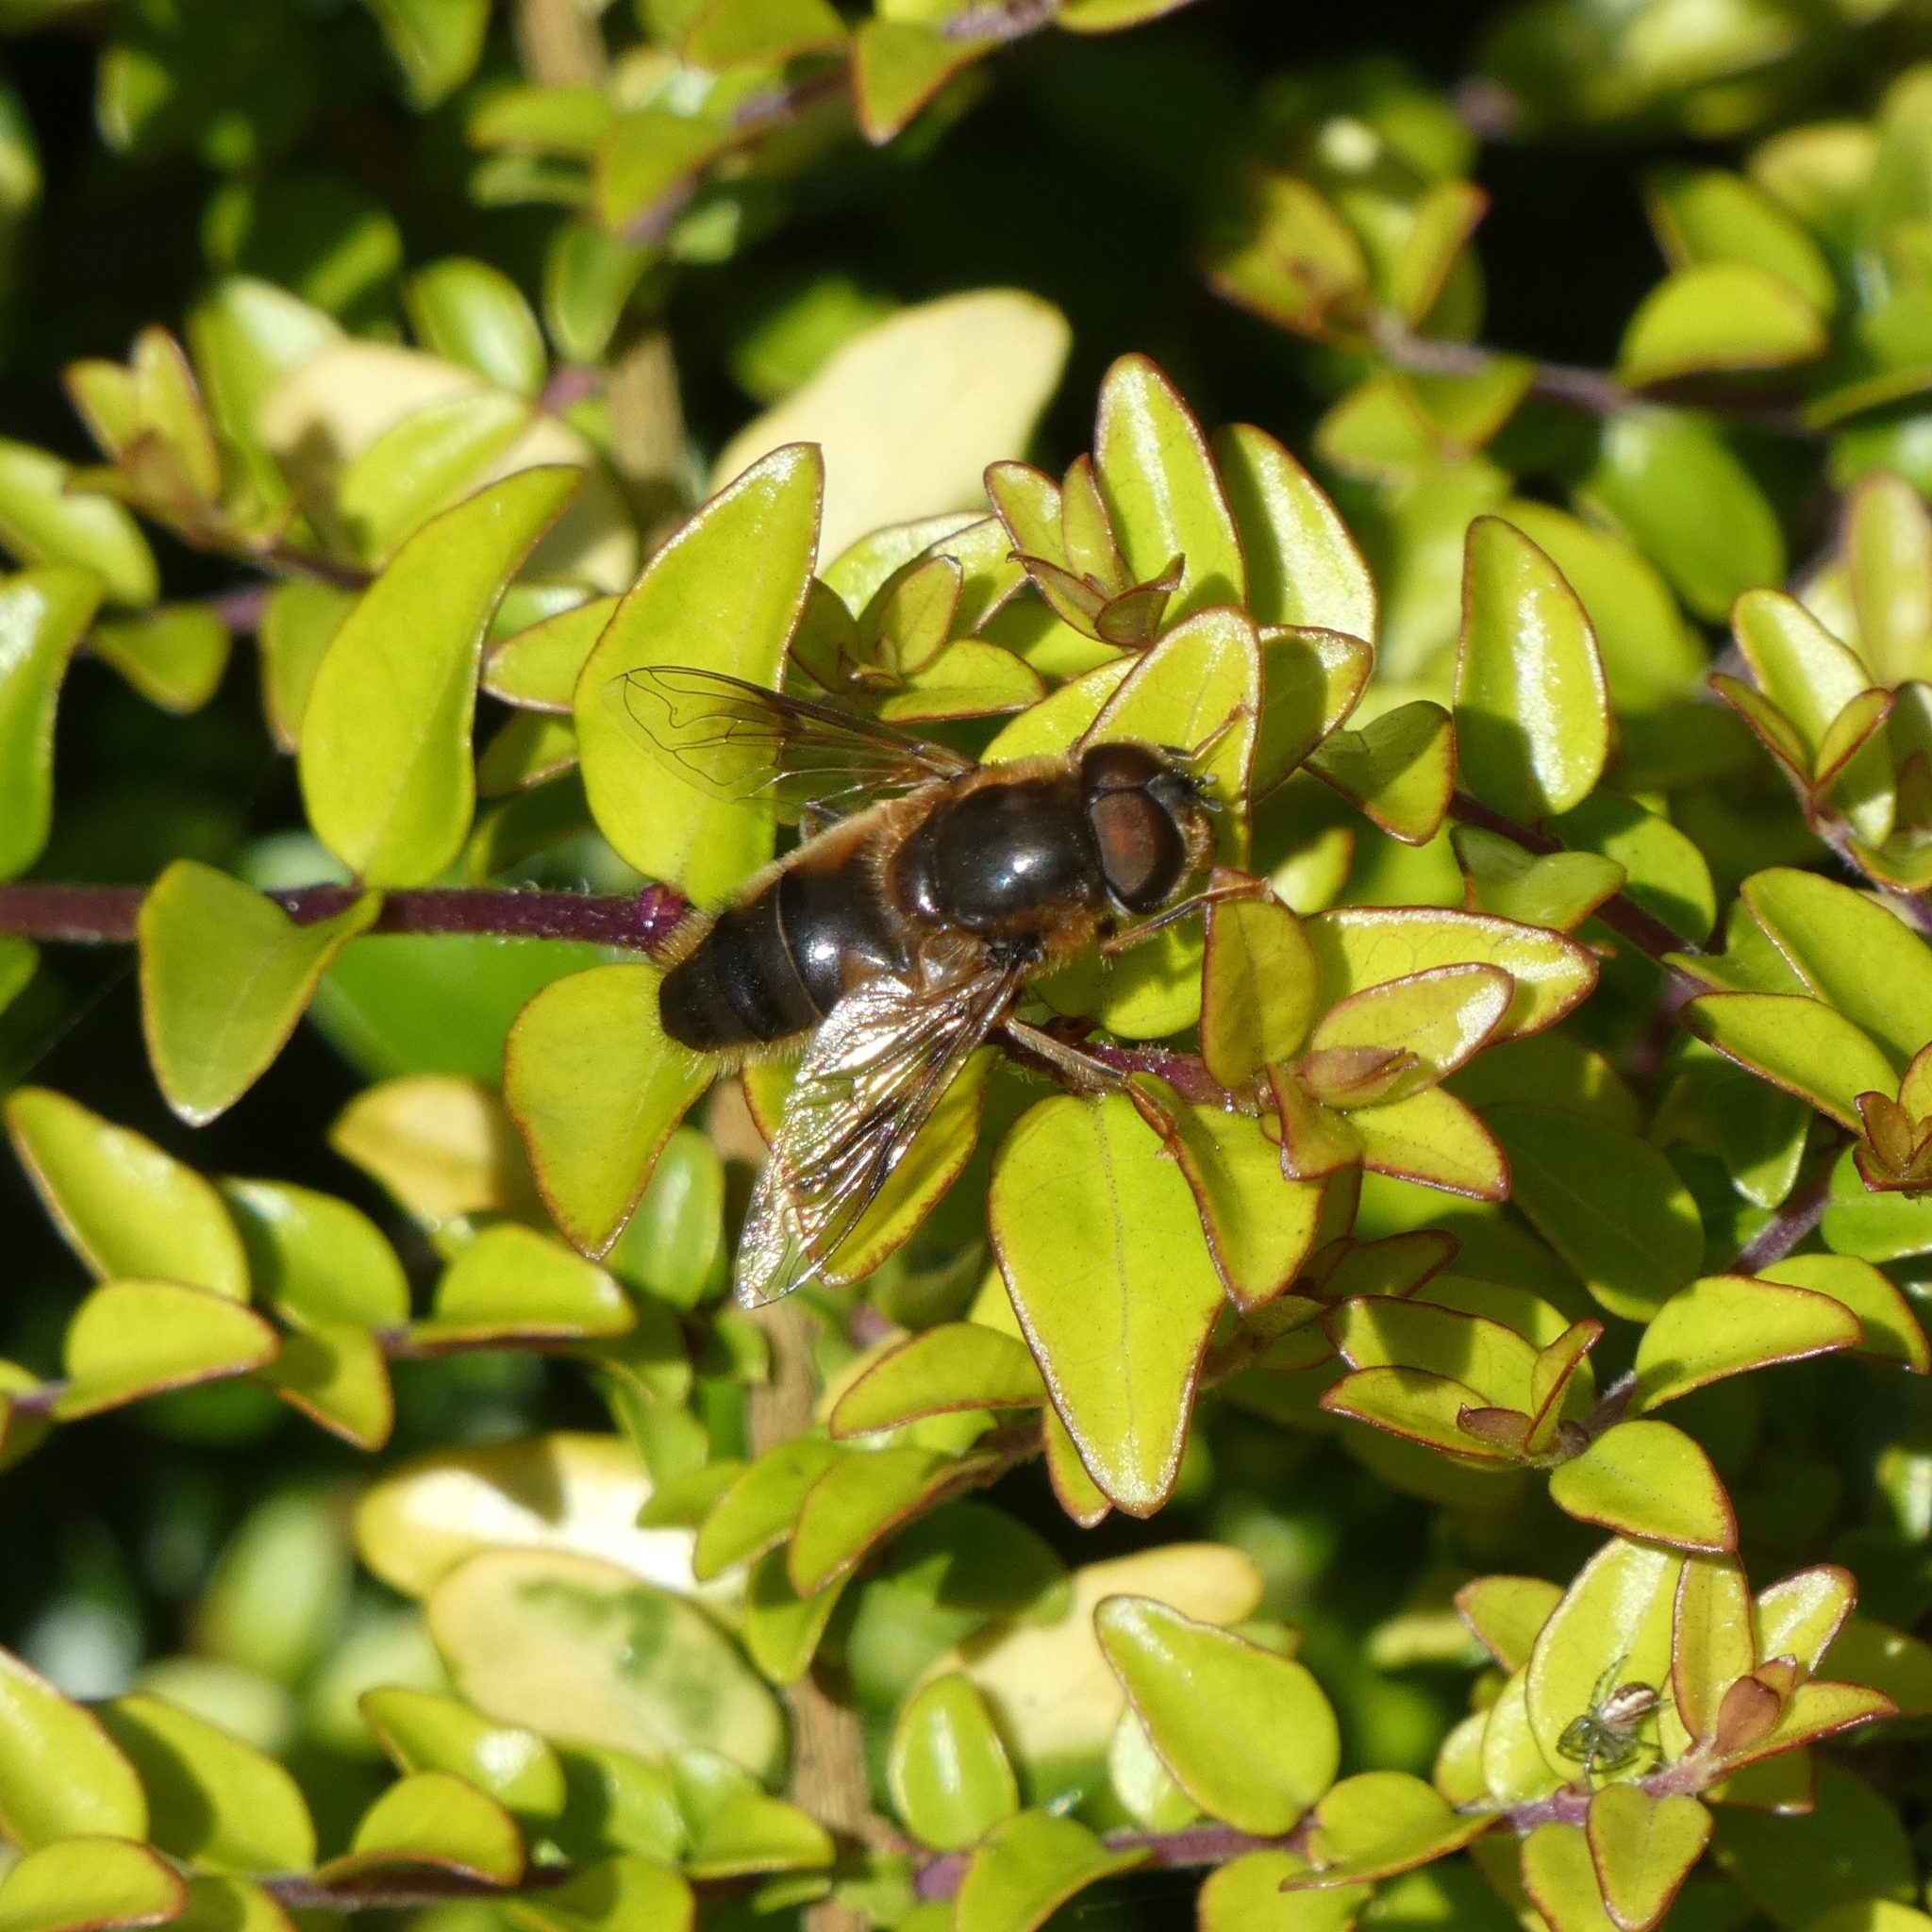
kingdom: Animalia
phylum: Arthropoda
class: Insecta
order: Diptera
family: Syrphidae
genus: Eristalis
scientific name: Eristalis pertinax
